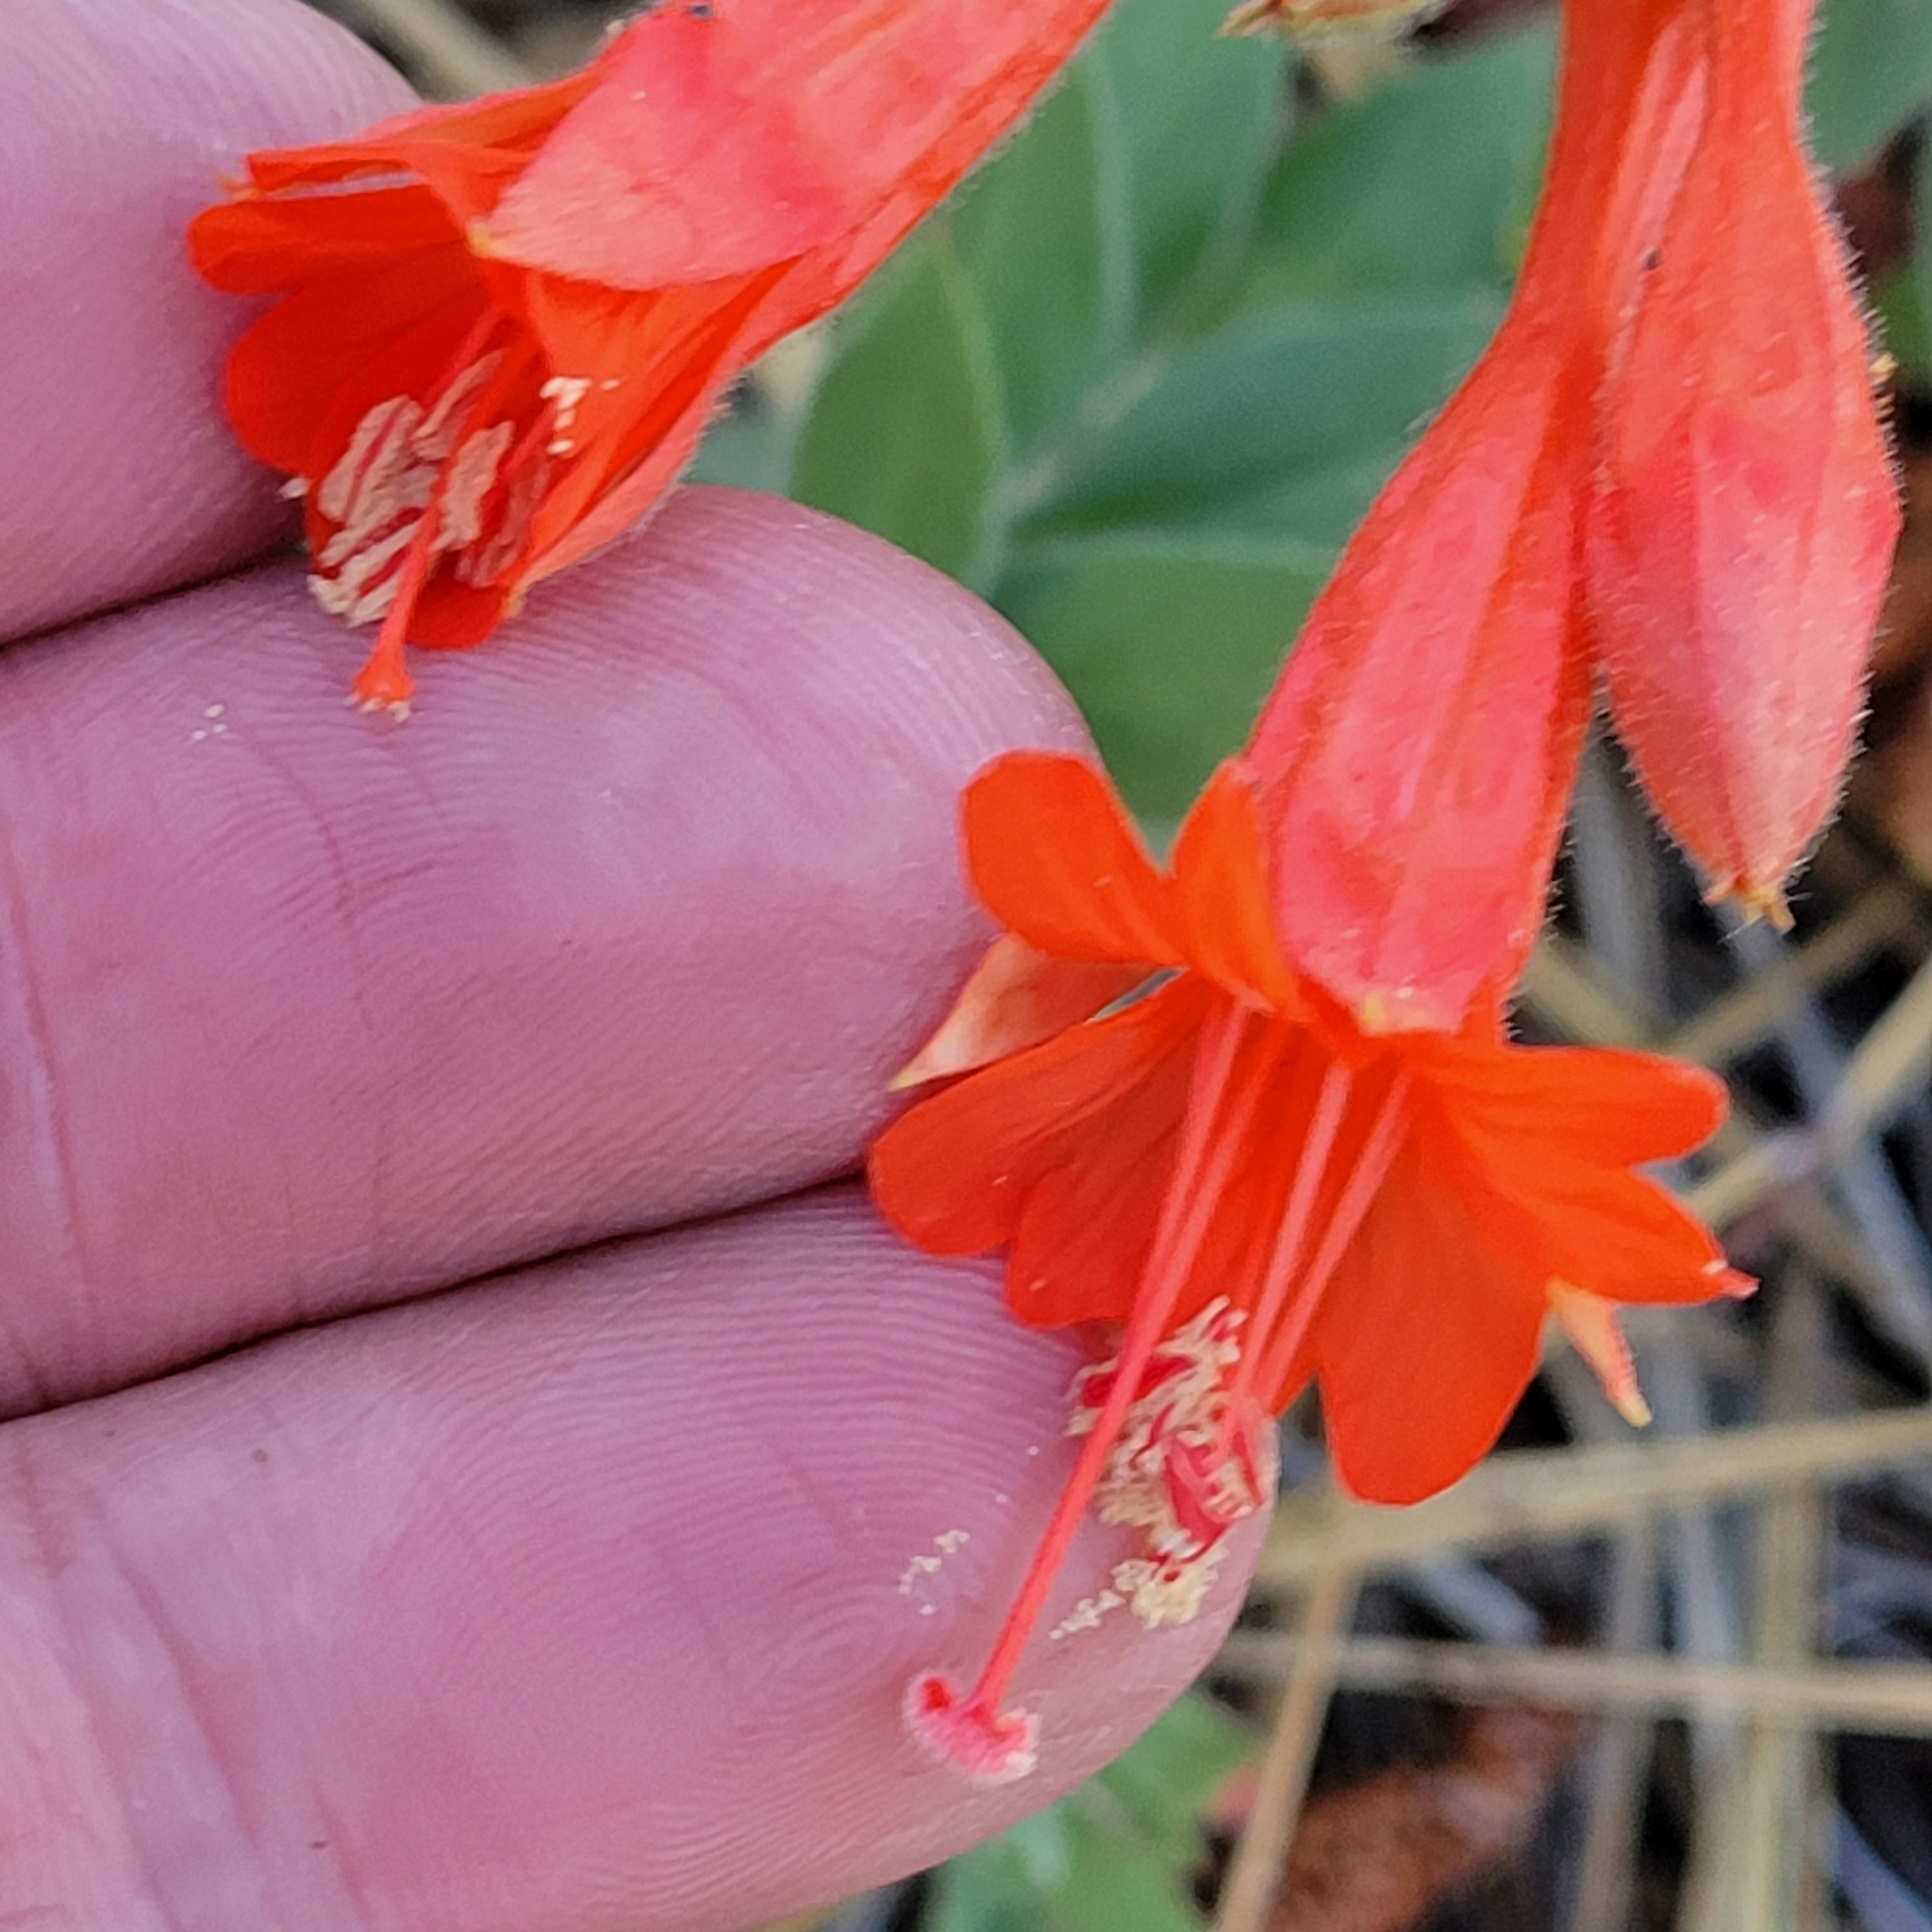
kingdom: Plantae
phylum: Tracheophyta
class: Magnoliopsida
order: Myrtales
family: Onagraceae
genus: Epilobium
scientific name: Epilobium canum
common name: California-fuchsia
